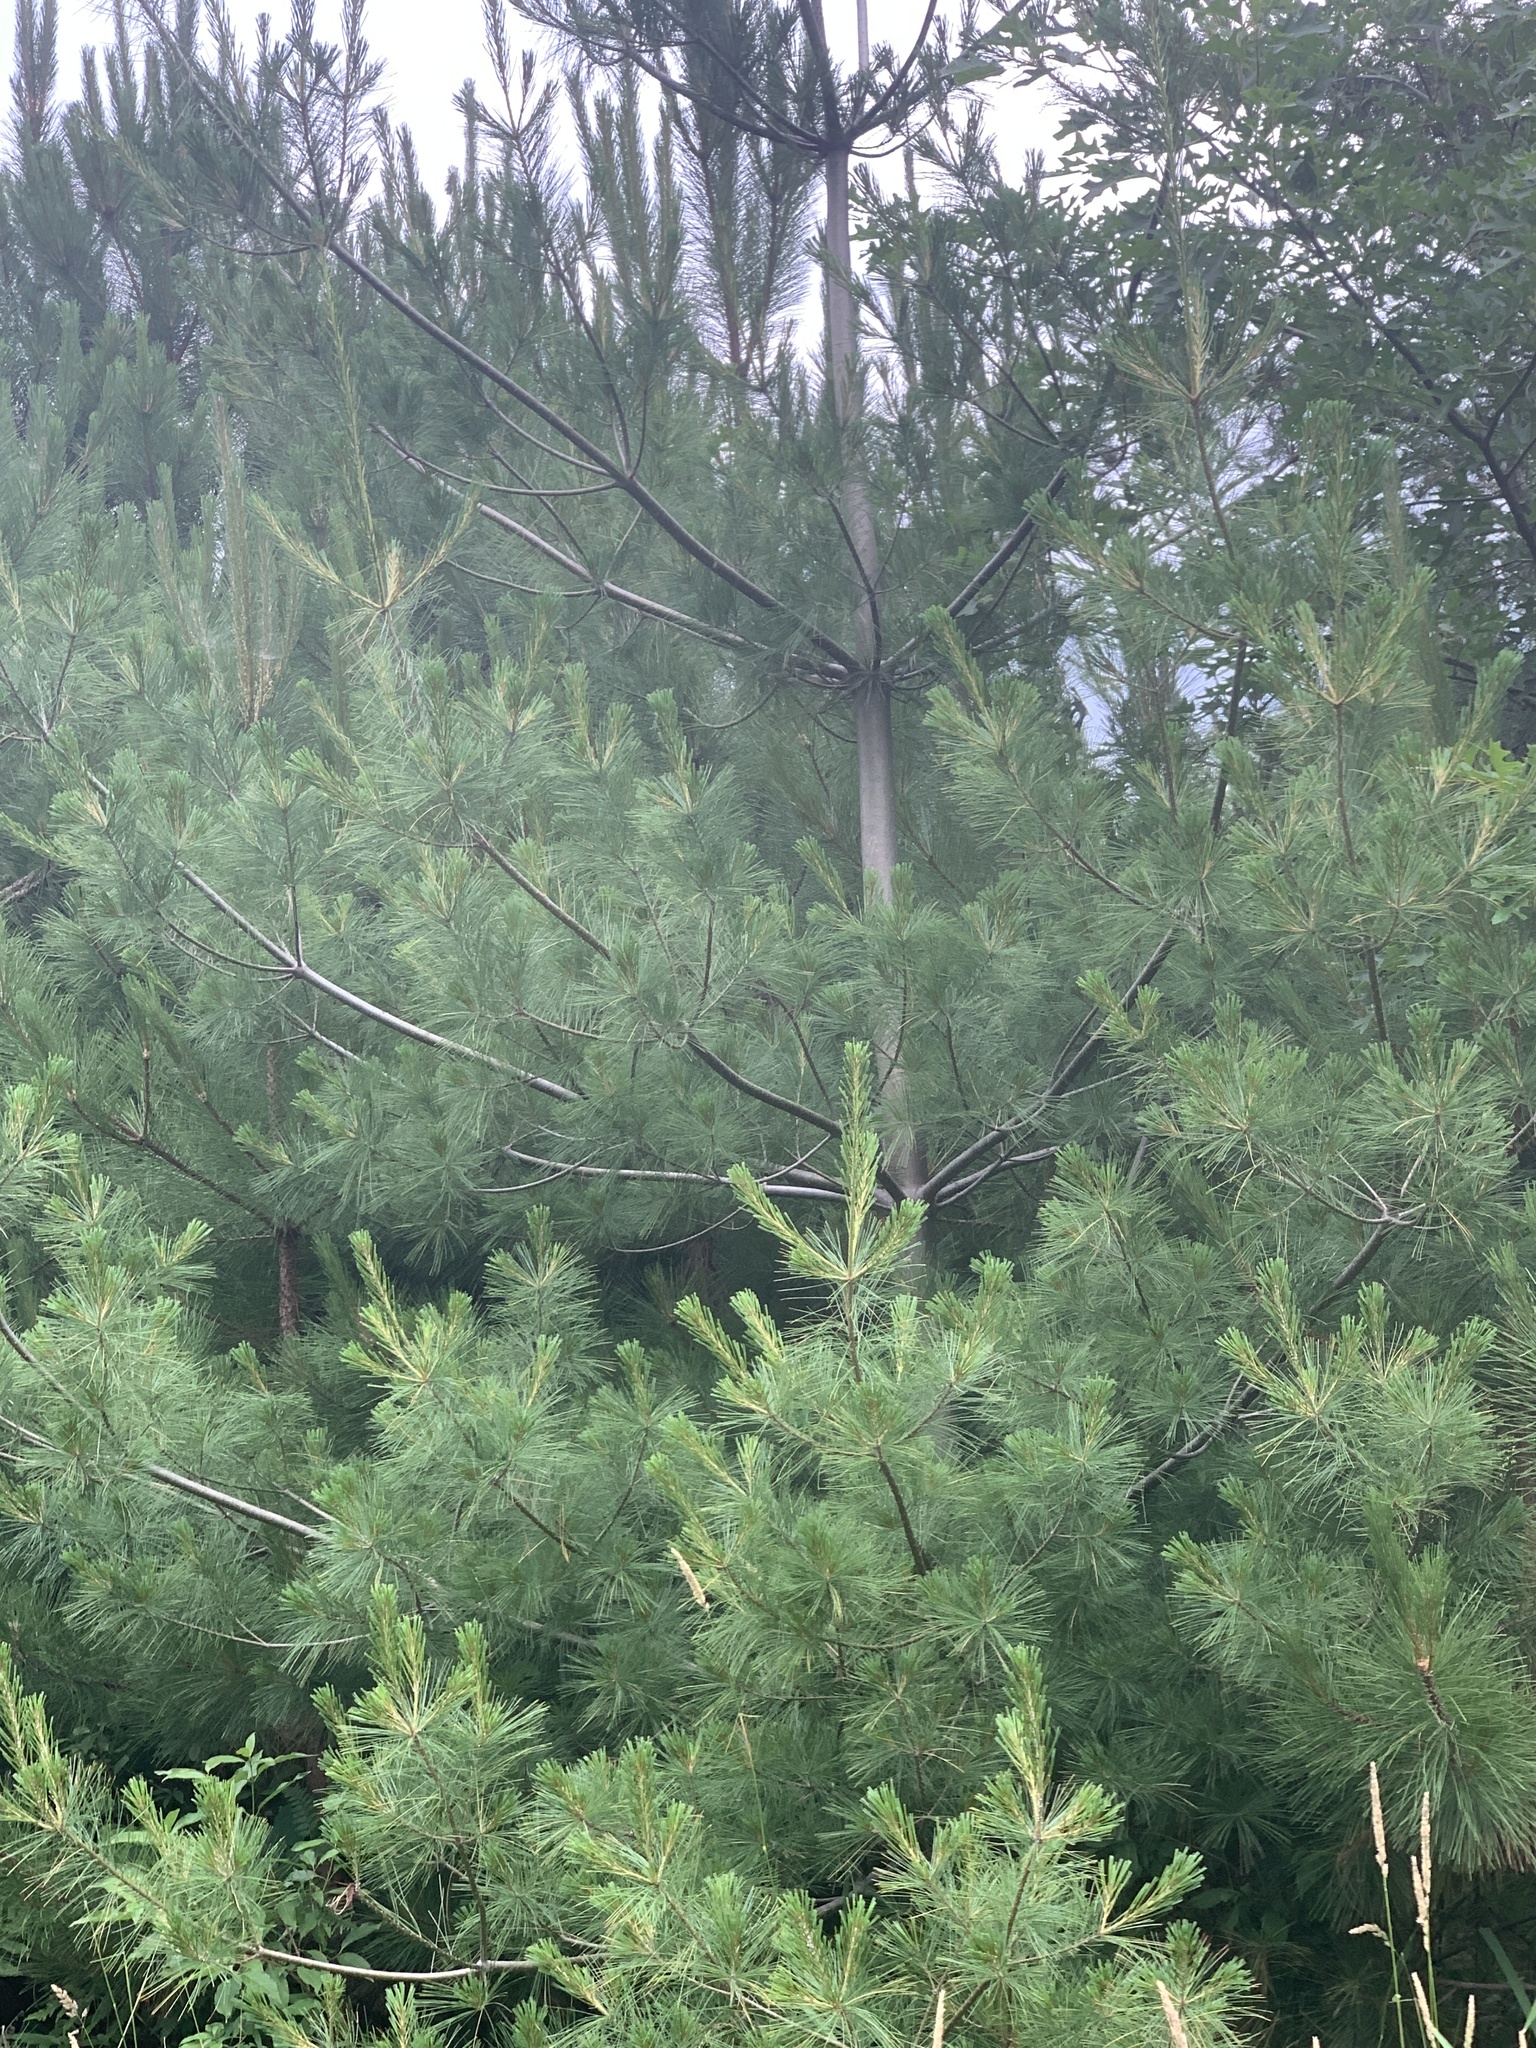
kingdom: Plantae
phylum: Tracheophyta
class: Pinopsida
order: Pinales
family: Pinaceae
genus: Pinus
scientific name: Pinus strobus
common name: Weymouth pine
